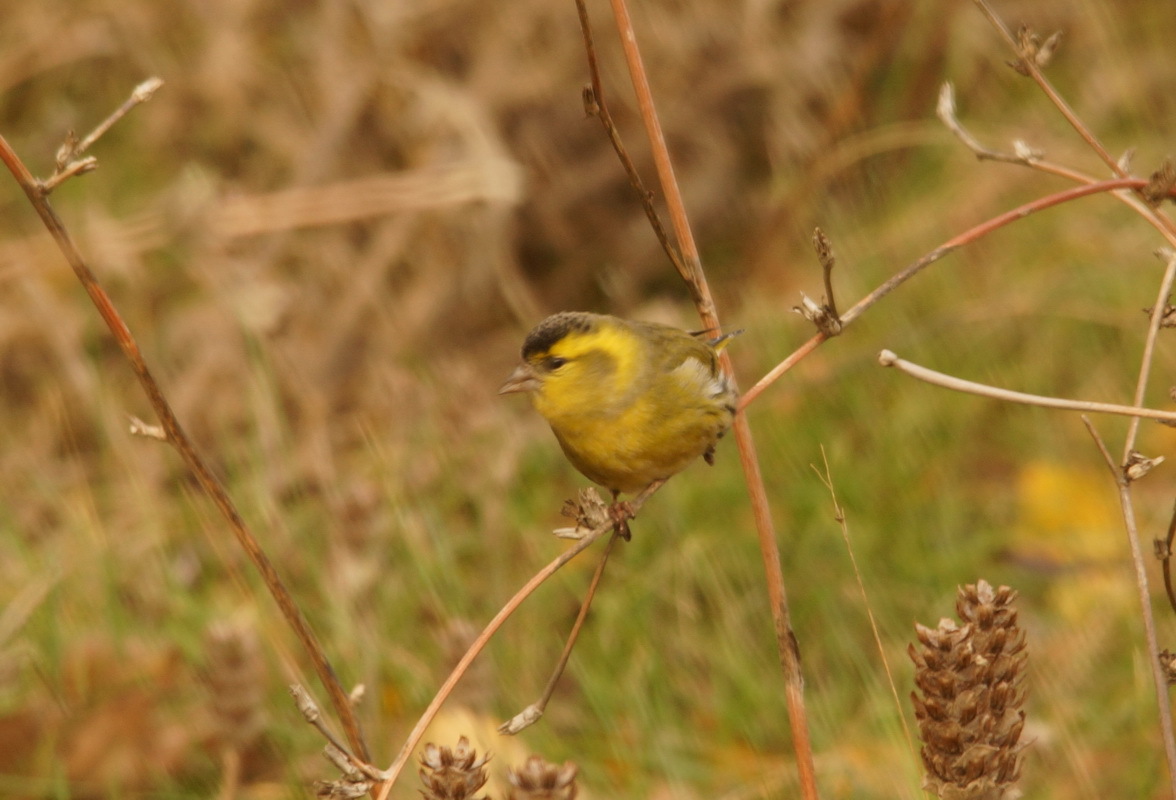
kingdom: Animalia
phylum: Chordata
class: Aves
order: Passeriformes
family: Fringillidae
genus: Spinus
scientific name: Spinus spinus
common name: Eurasian siskin
